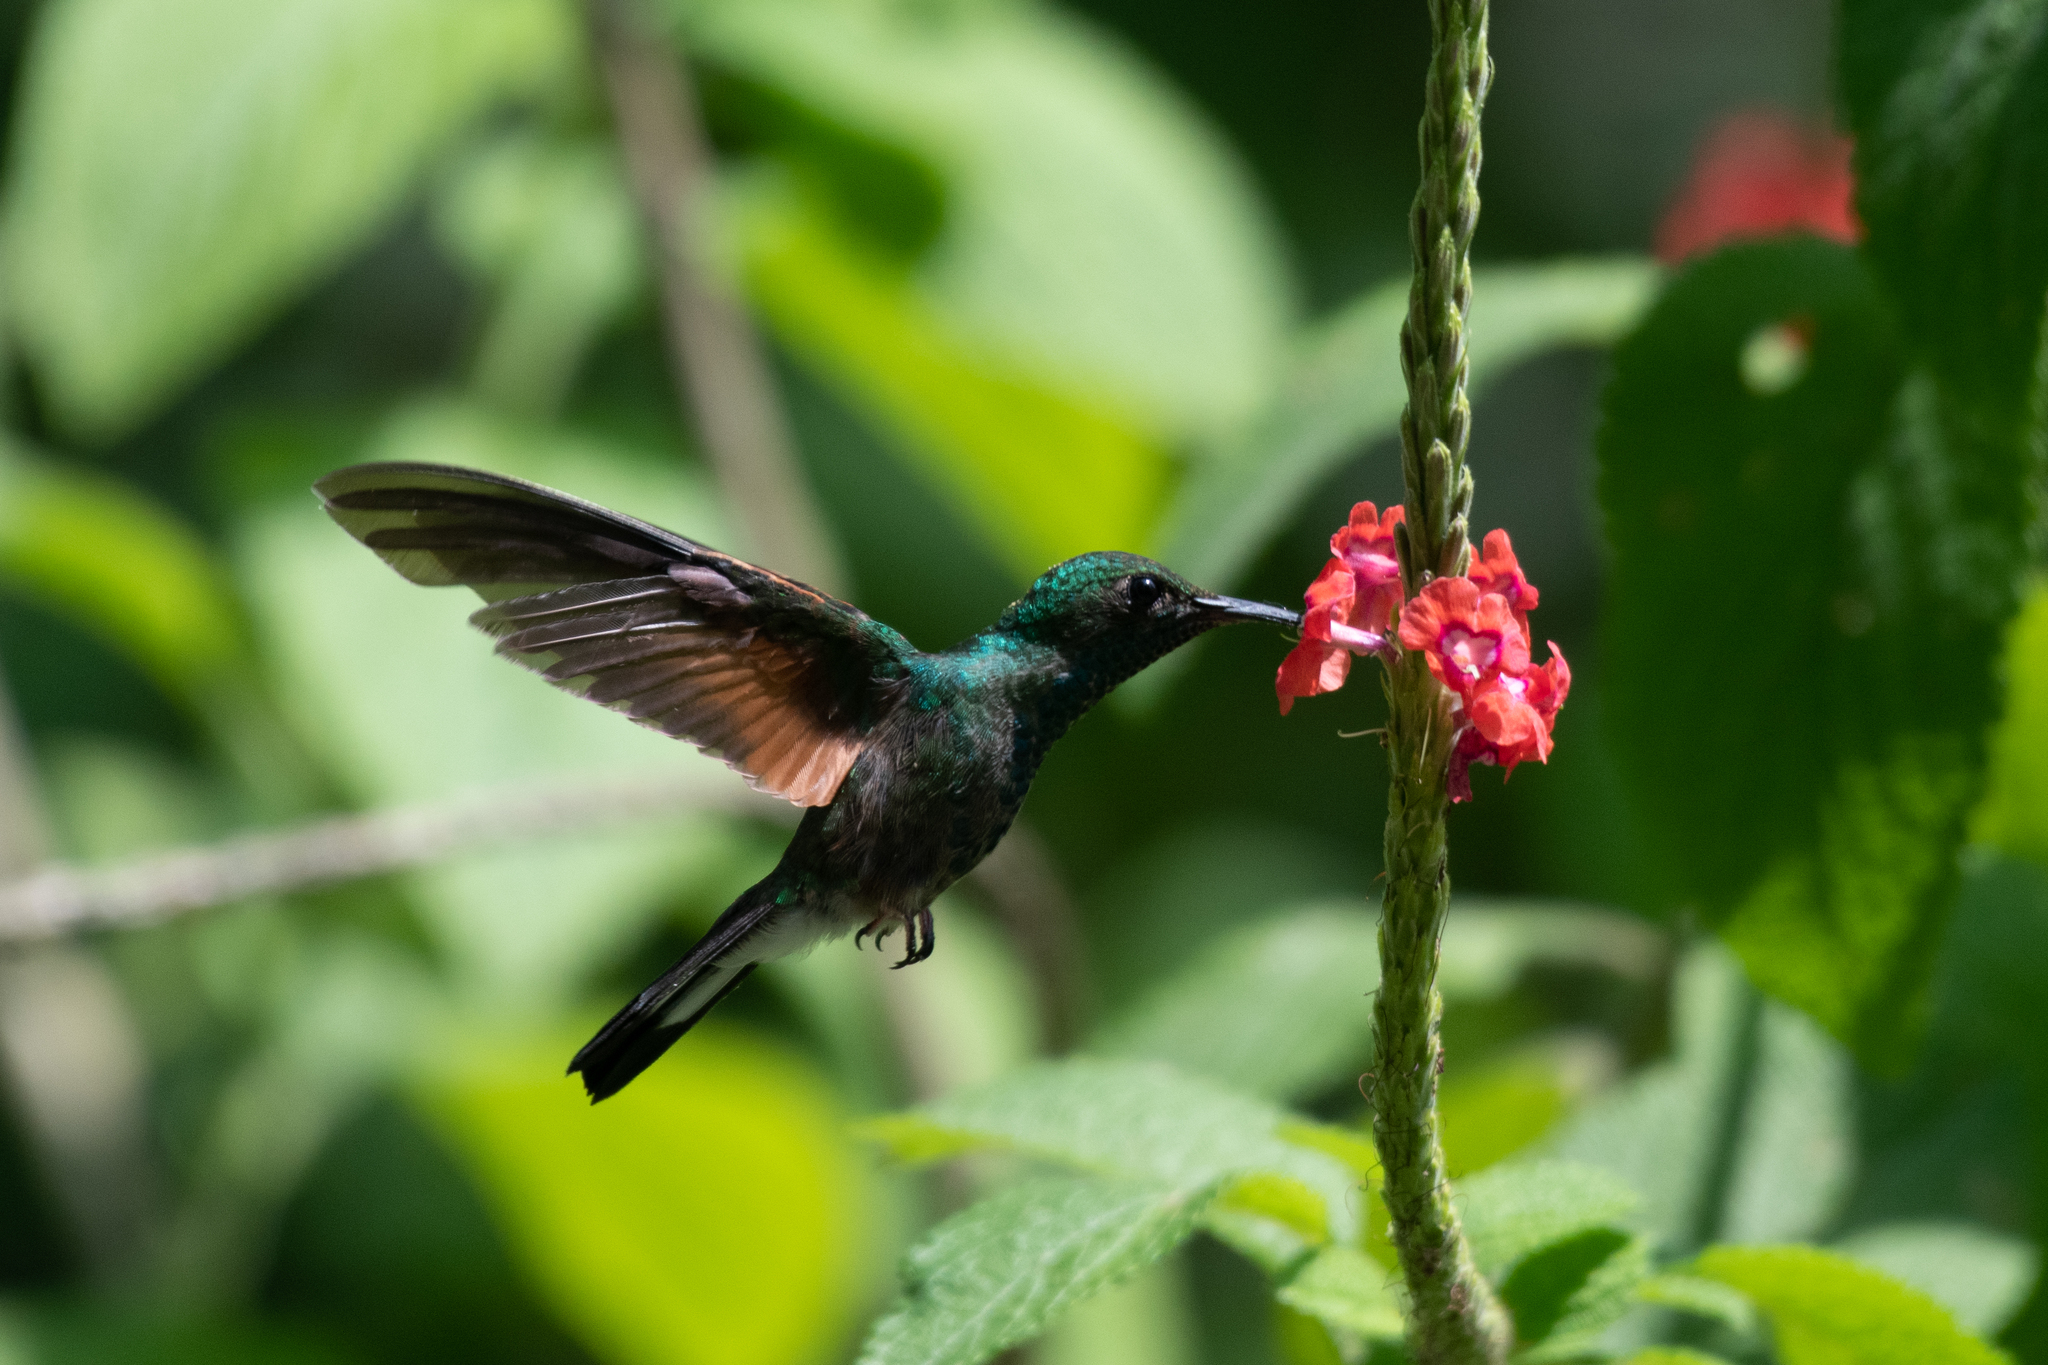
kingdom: Animalia
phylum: Chordata
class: Aves
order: Apodiformes
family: Trochilidae
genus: Eupherusa
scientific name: Eupherusa eximia
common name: Stripe-tailed hummingbird
